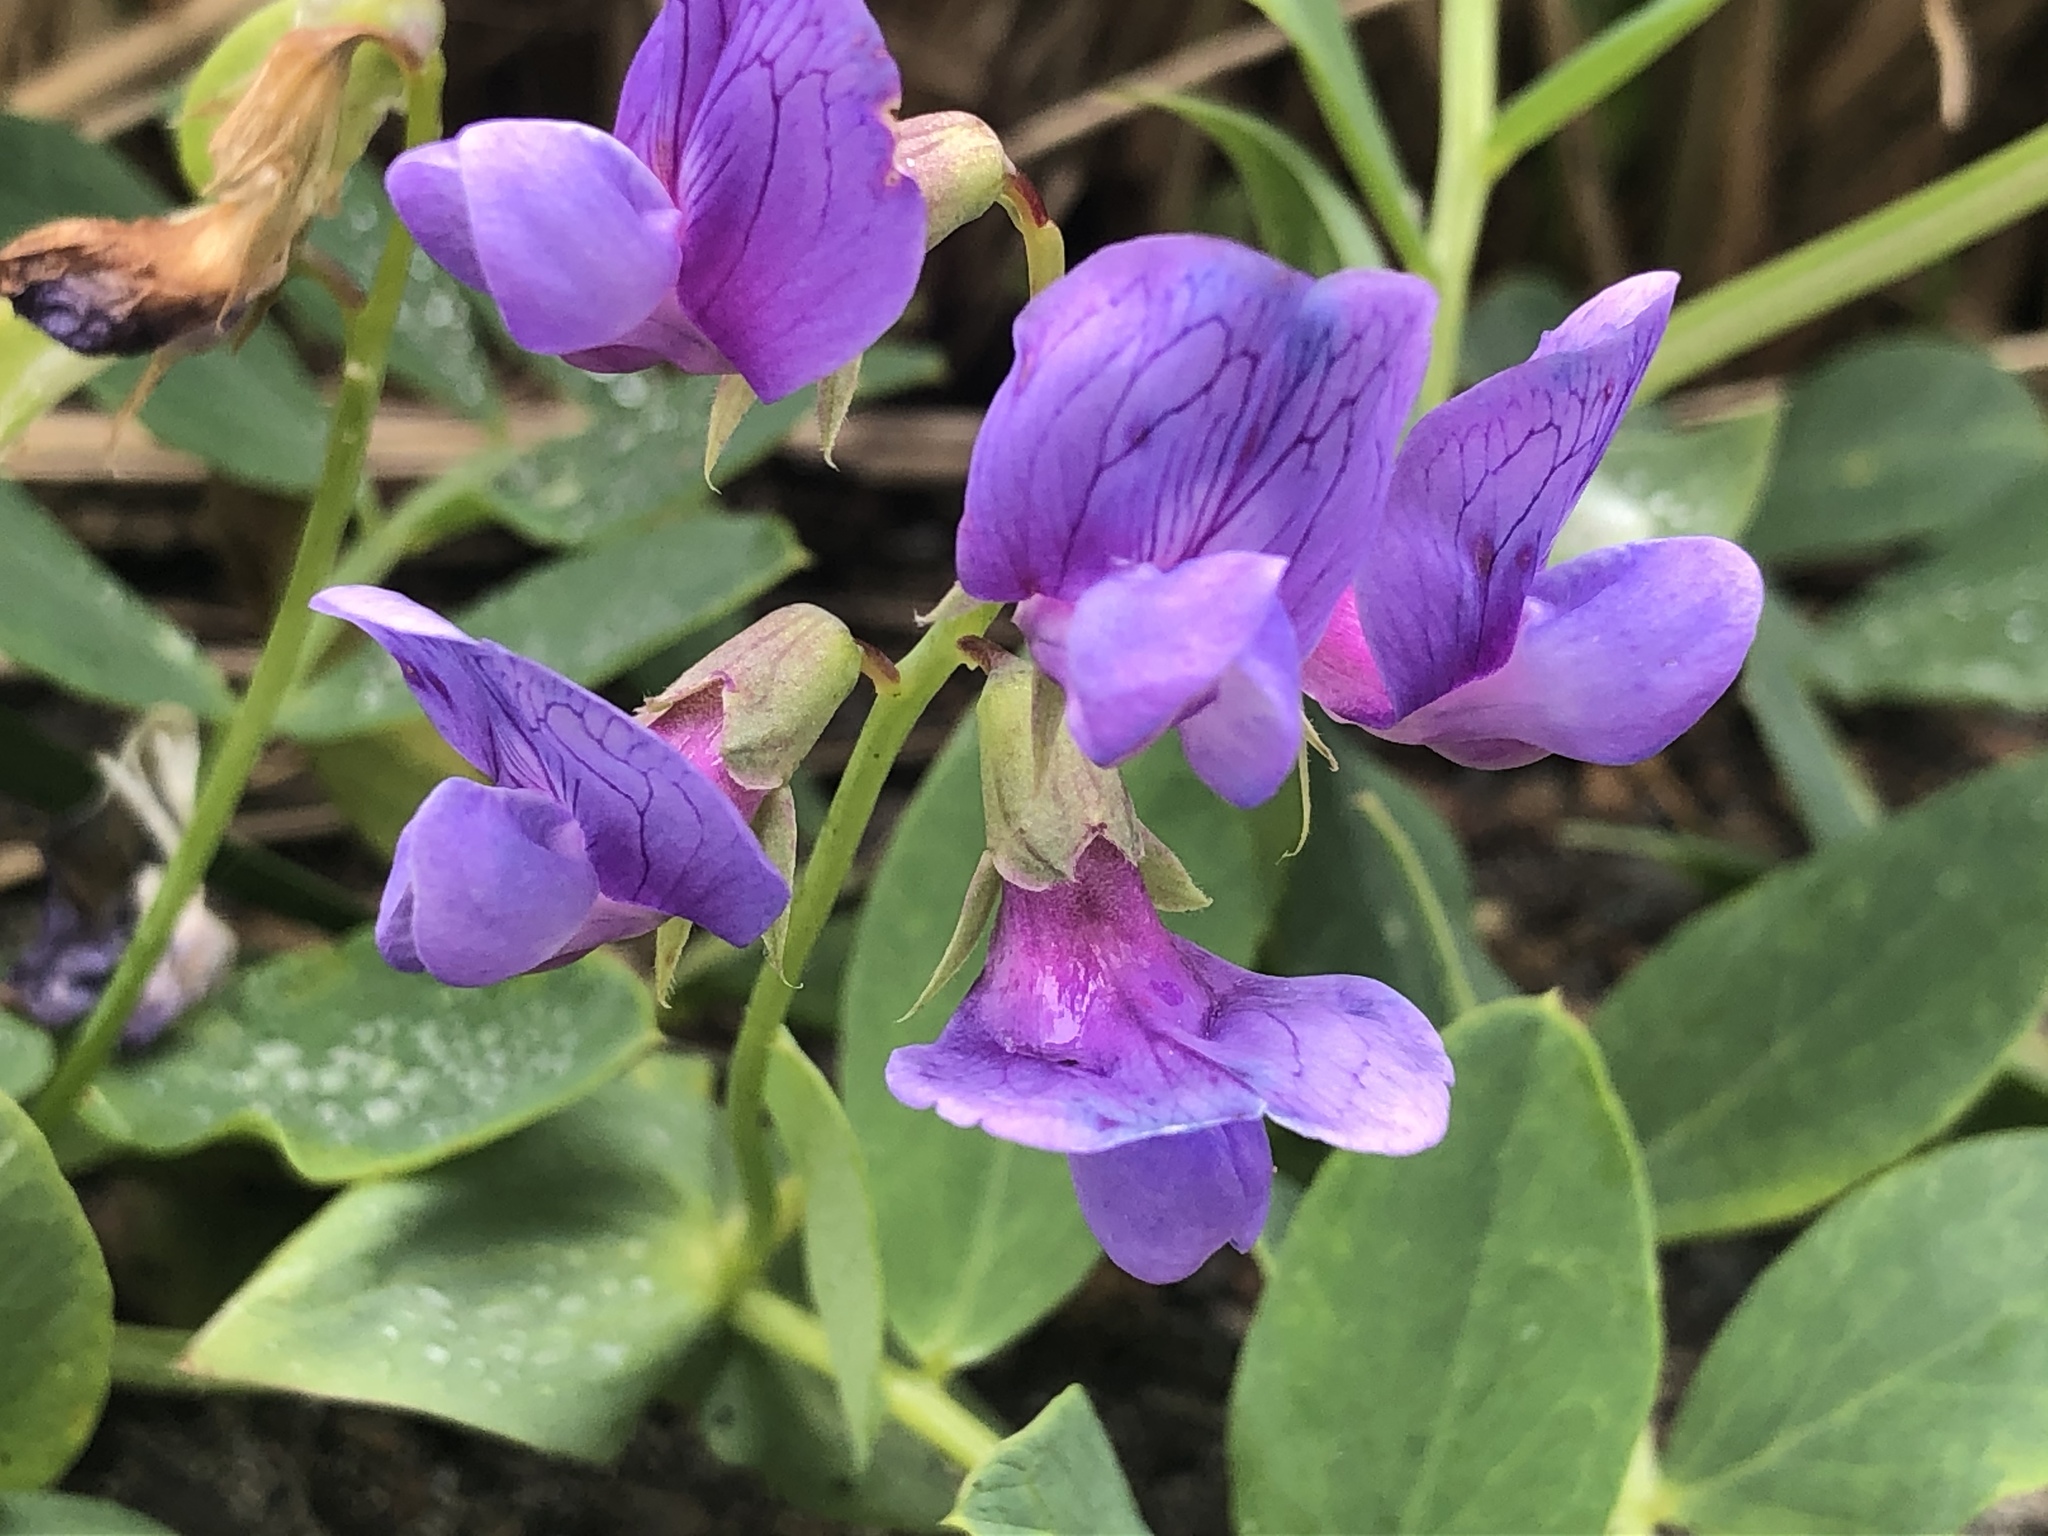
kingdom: Plantae
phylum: Tracheophyta
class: Magnoliopsida
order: Fabales
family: Fabaceae
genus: Lathyrus
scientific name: Lathyrus japonicus
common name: Sea pea
